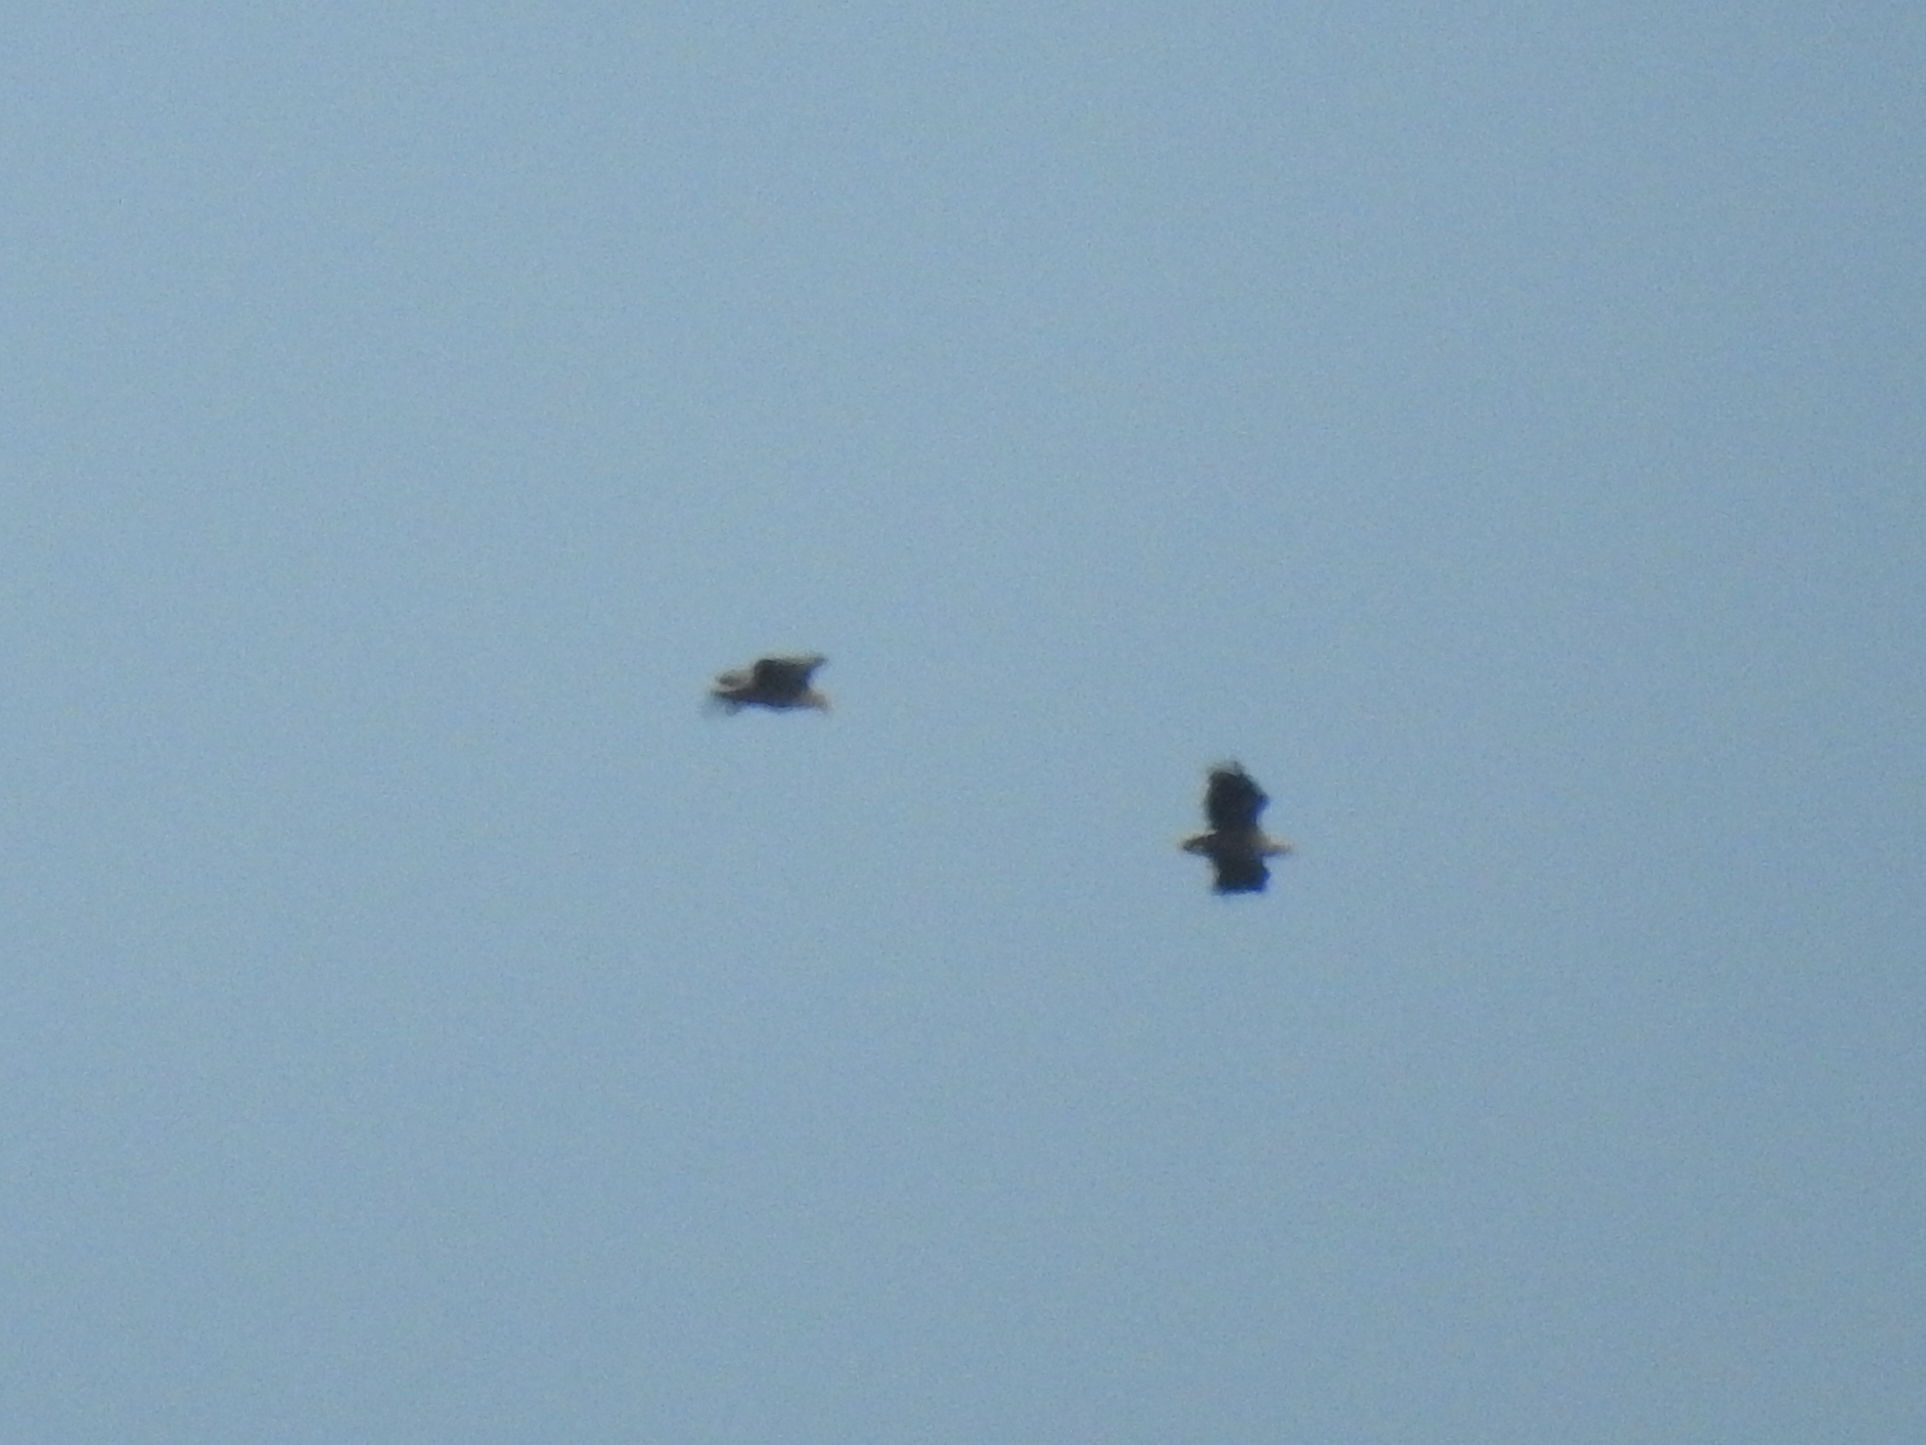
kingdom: Animalia
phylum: Chordata
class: Aves
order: Accipitriformes
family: Accipitridae
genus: Haliaeetus
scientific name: Haliaeetus albicilla
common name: White-tailed eagle
